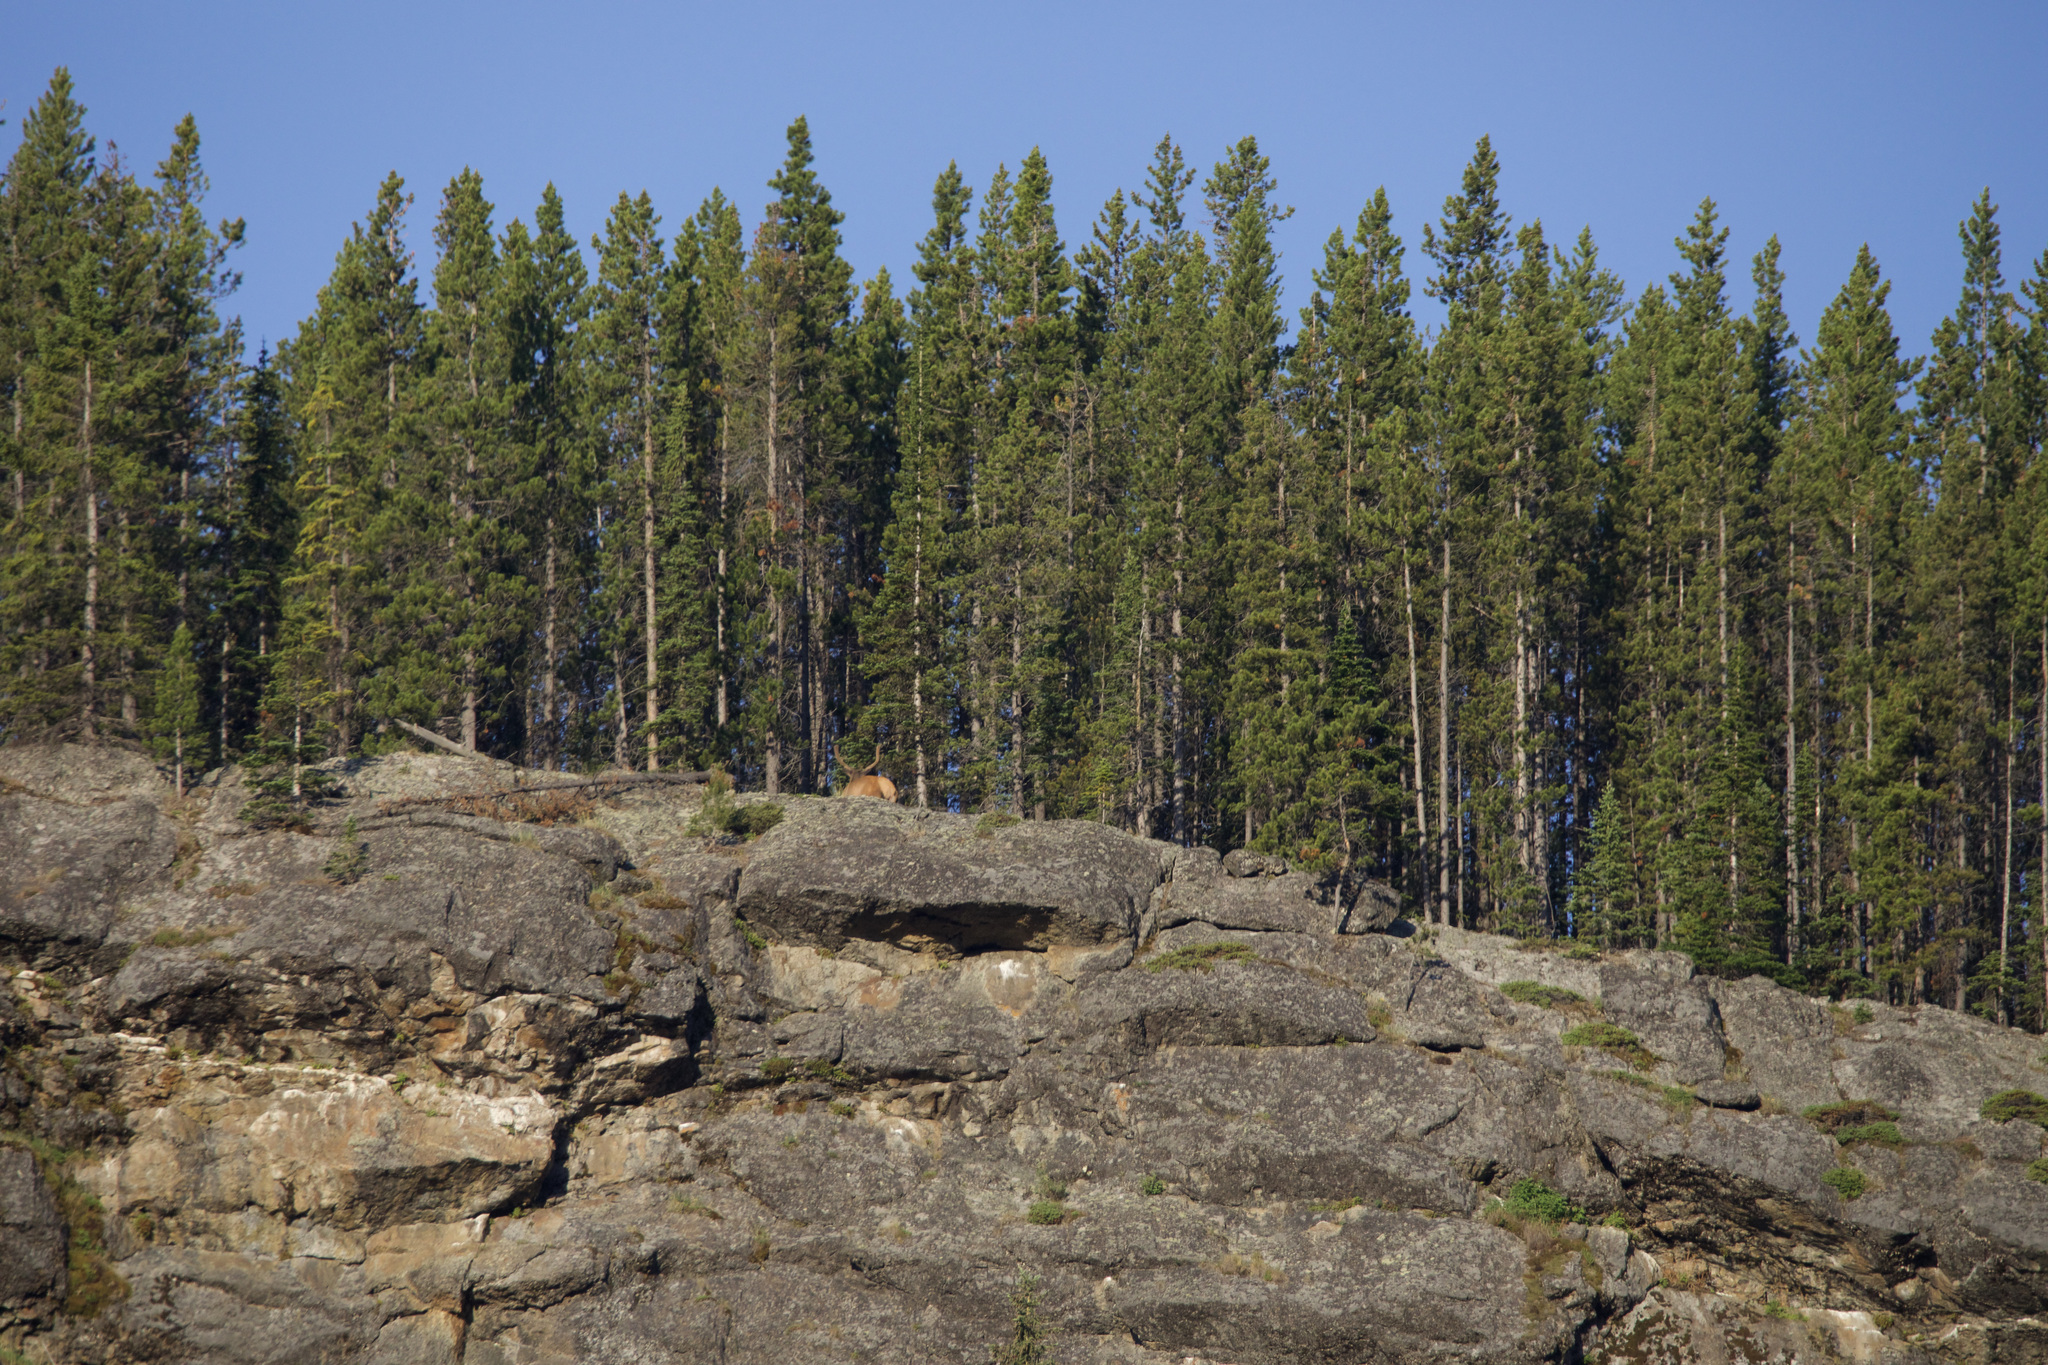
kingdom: Animalia
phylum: Chordata
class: Mammalia
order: Artiodactyla
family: Cervidae
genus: Cervus
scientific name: Cervus elaphus
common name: Red deer
